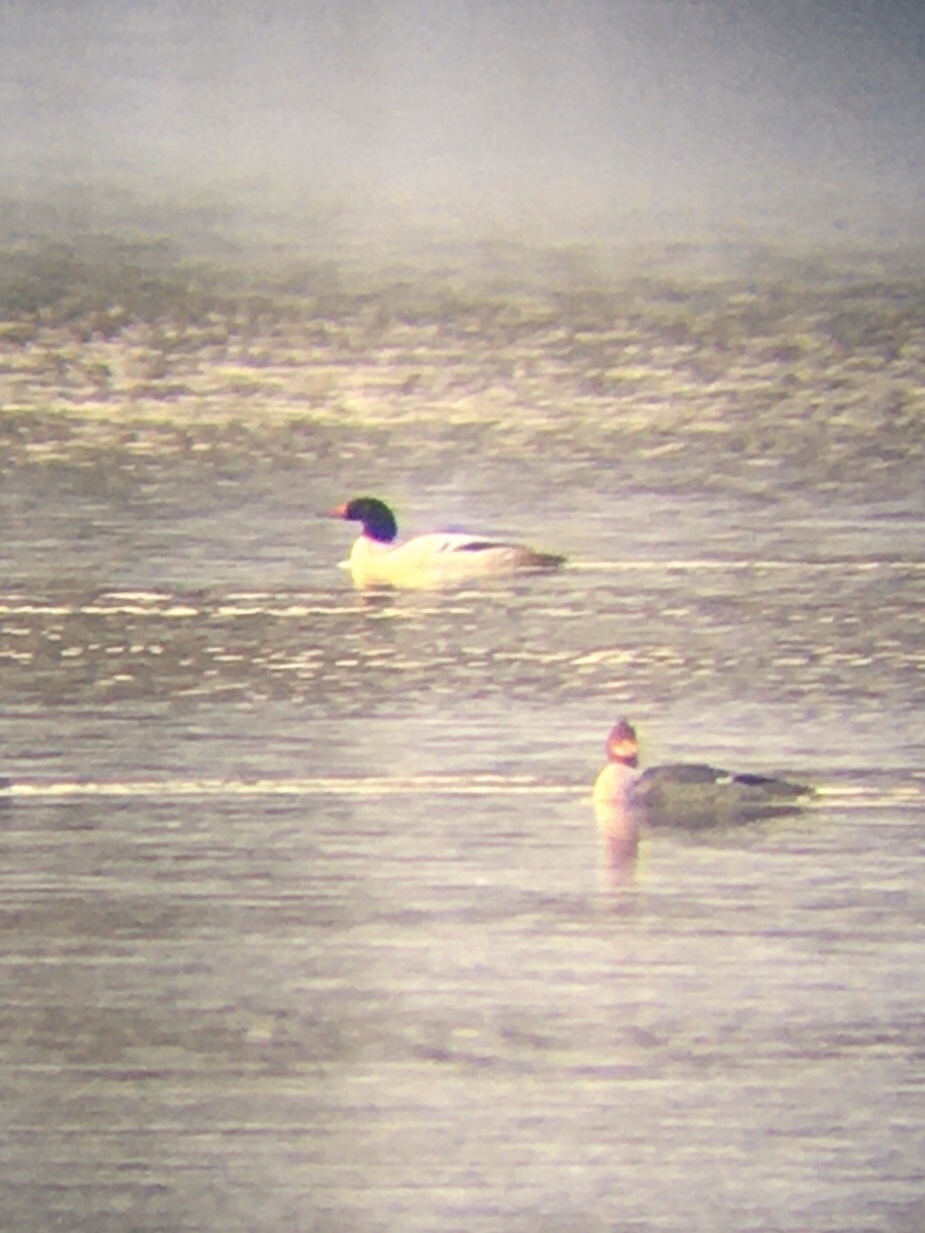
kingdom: Animalia
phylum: Chordata
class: Aves
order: Anseriformes
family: Anatidae
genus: Mergus
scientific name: Mergus merganser
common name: Common merganser
